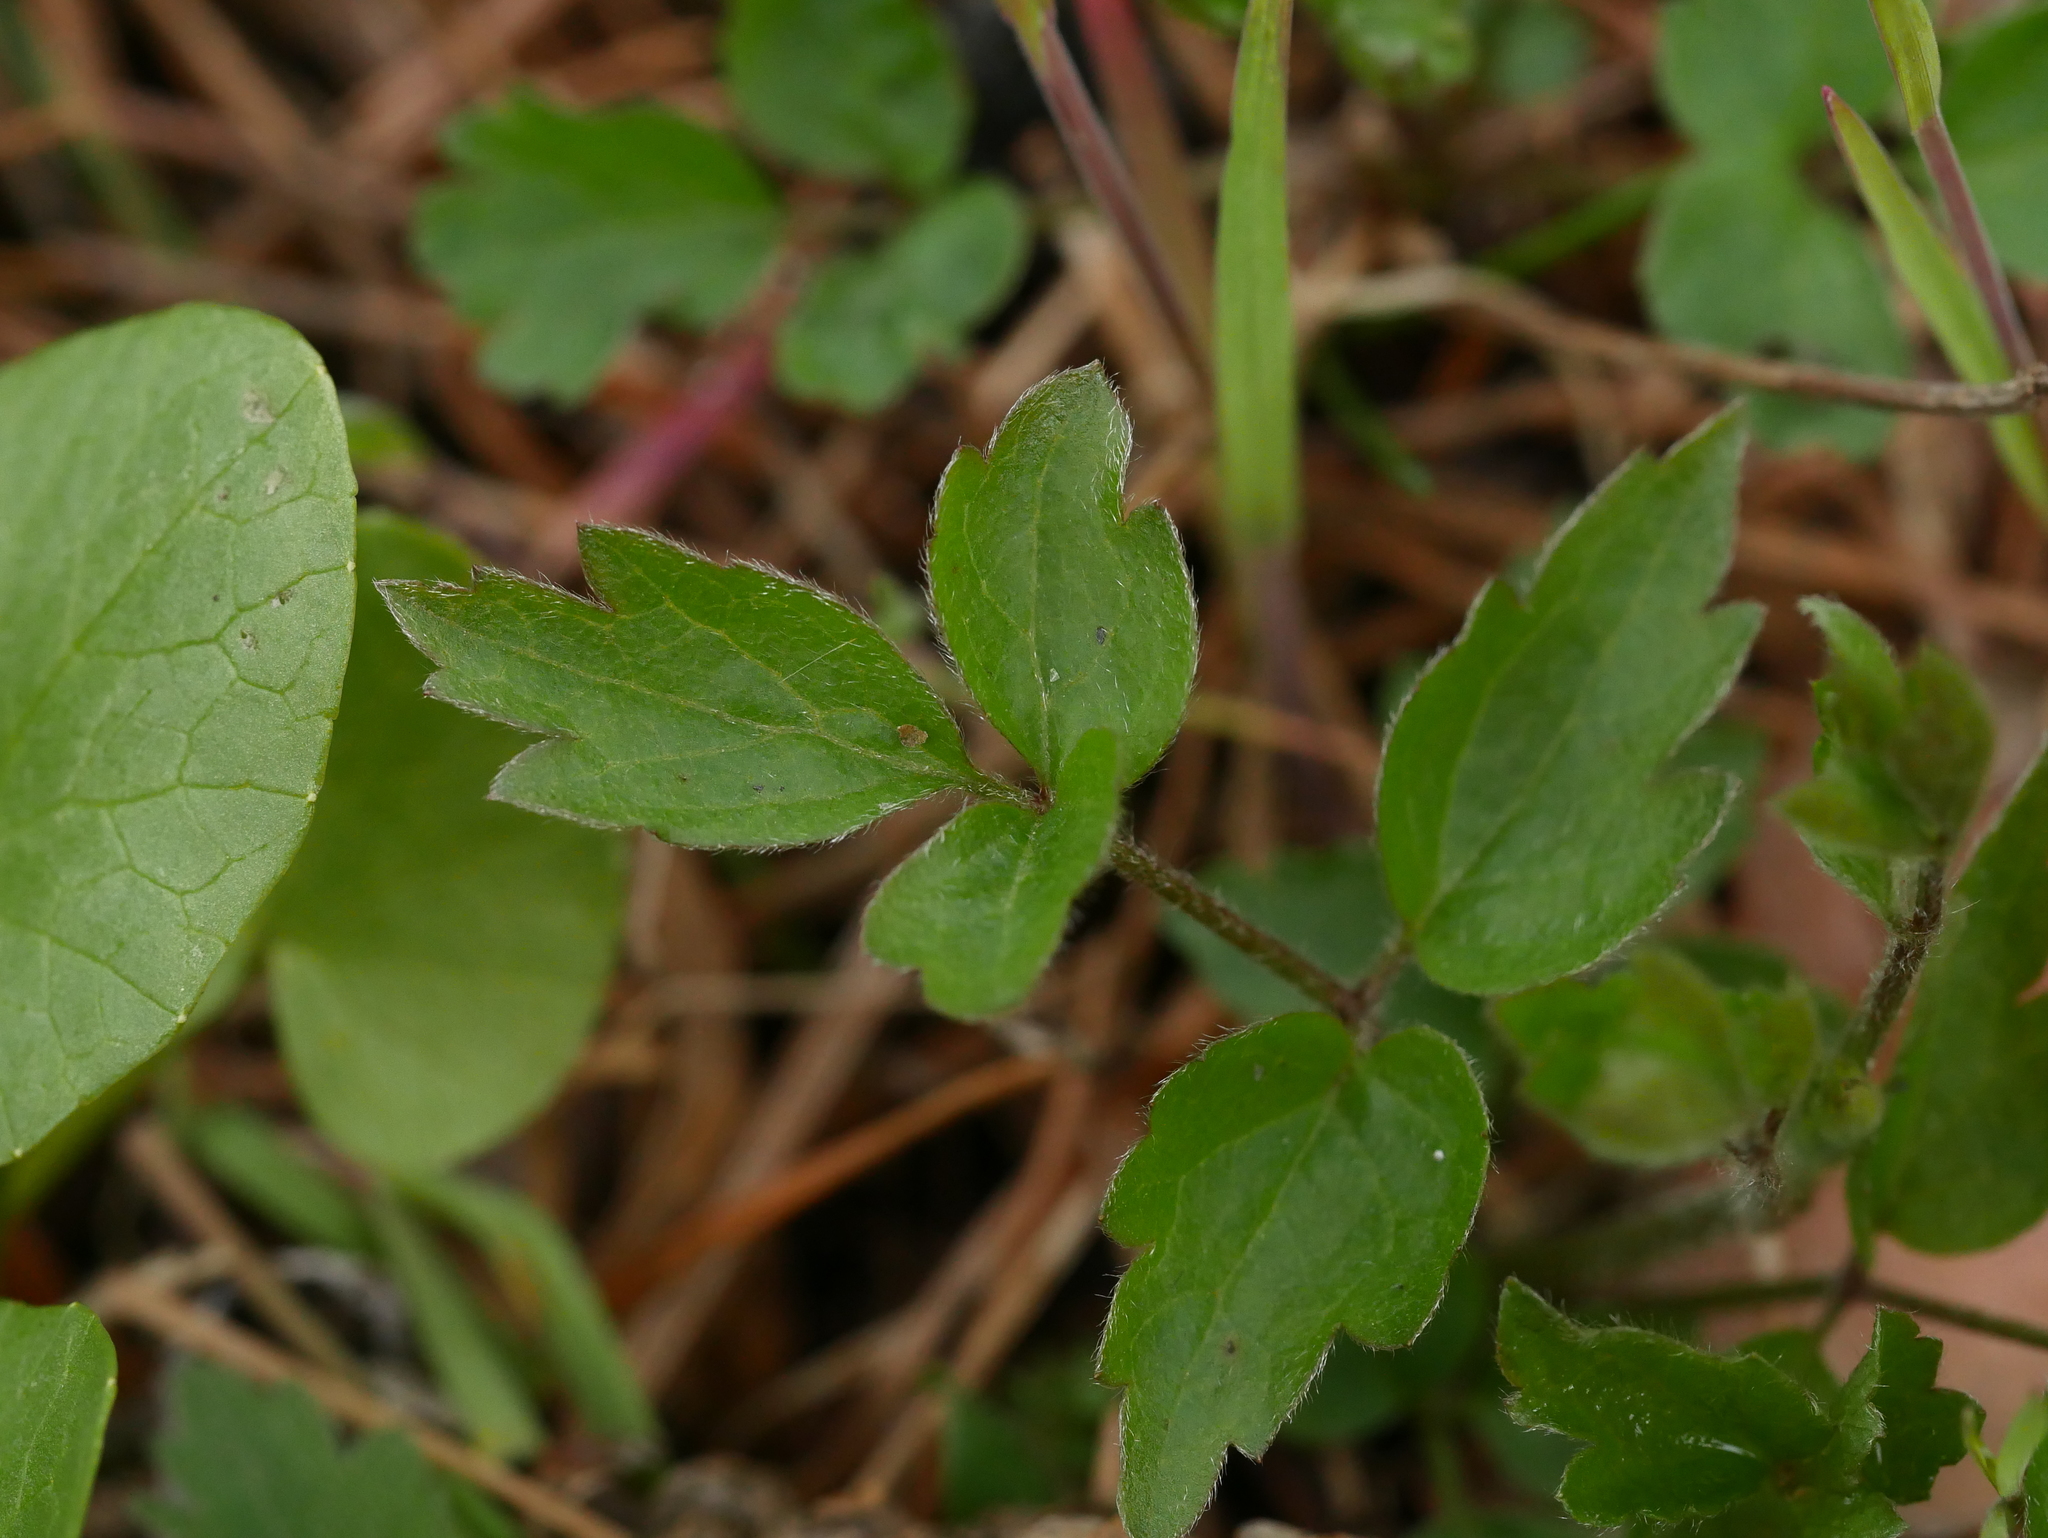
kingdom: Plantae
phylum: Tracheophyta
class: Magnoliopsida
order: Ranunculales
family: Ranunculaceae
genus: Clematis
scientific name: Clematis vitalba
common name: Evergreen clematis
